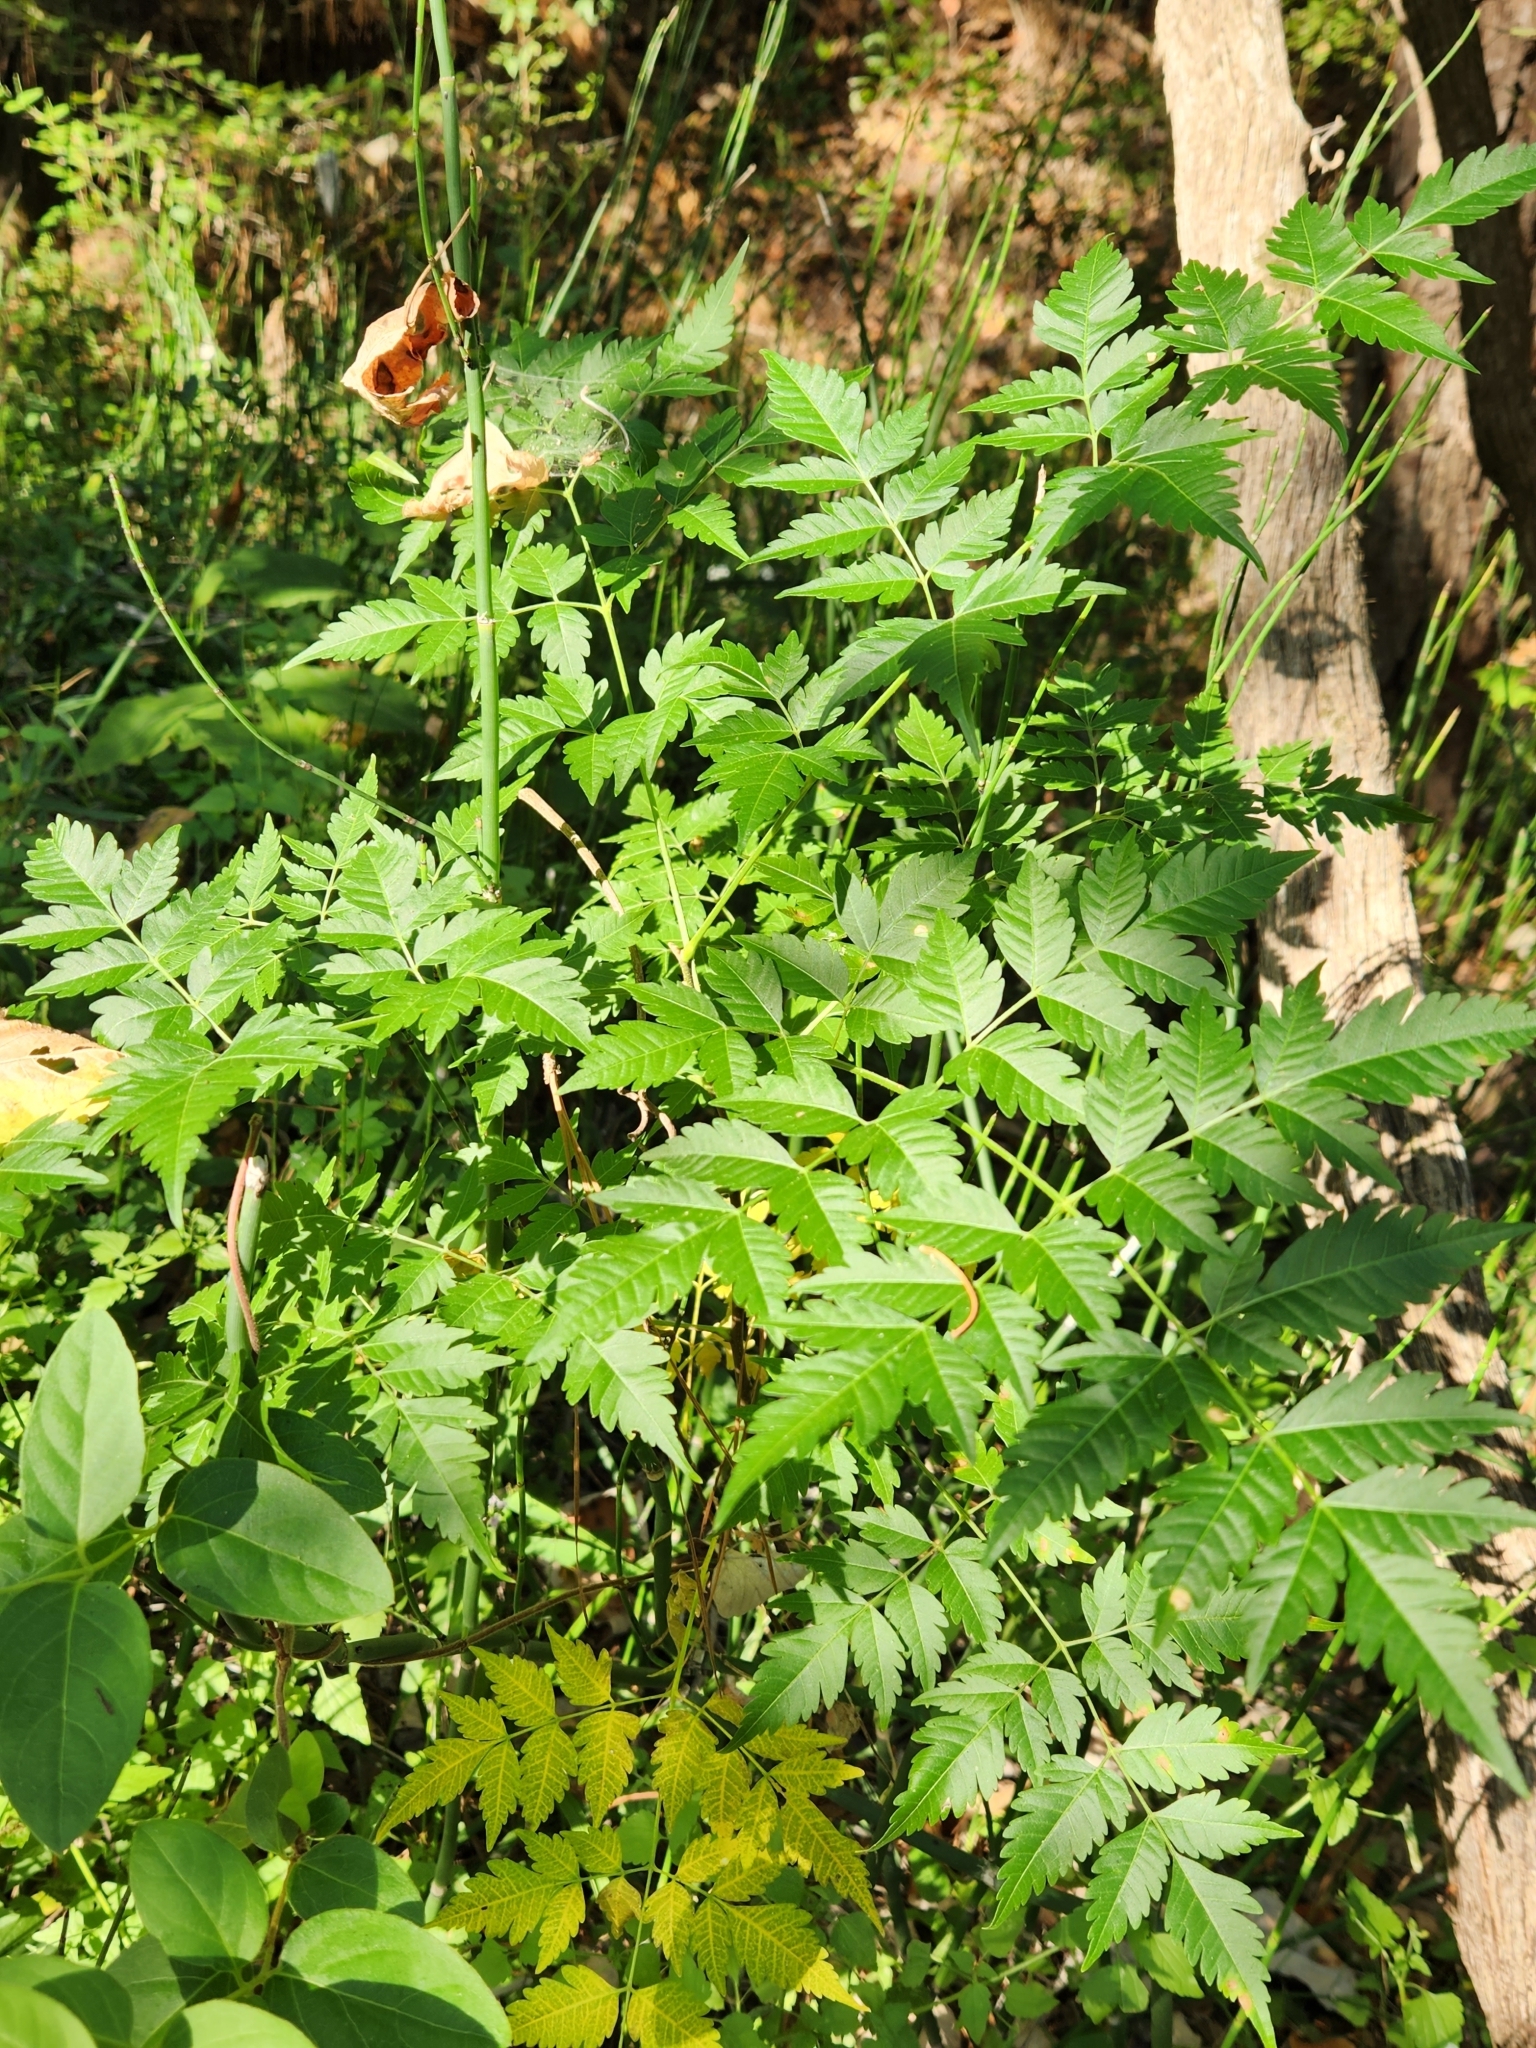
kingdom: Plantae
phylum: Tracheophyta
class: Magnoliopsida
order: Sapindales
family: Meliaceae
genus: Melia
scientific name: Melia azedarach
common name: Chinaberrytree
